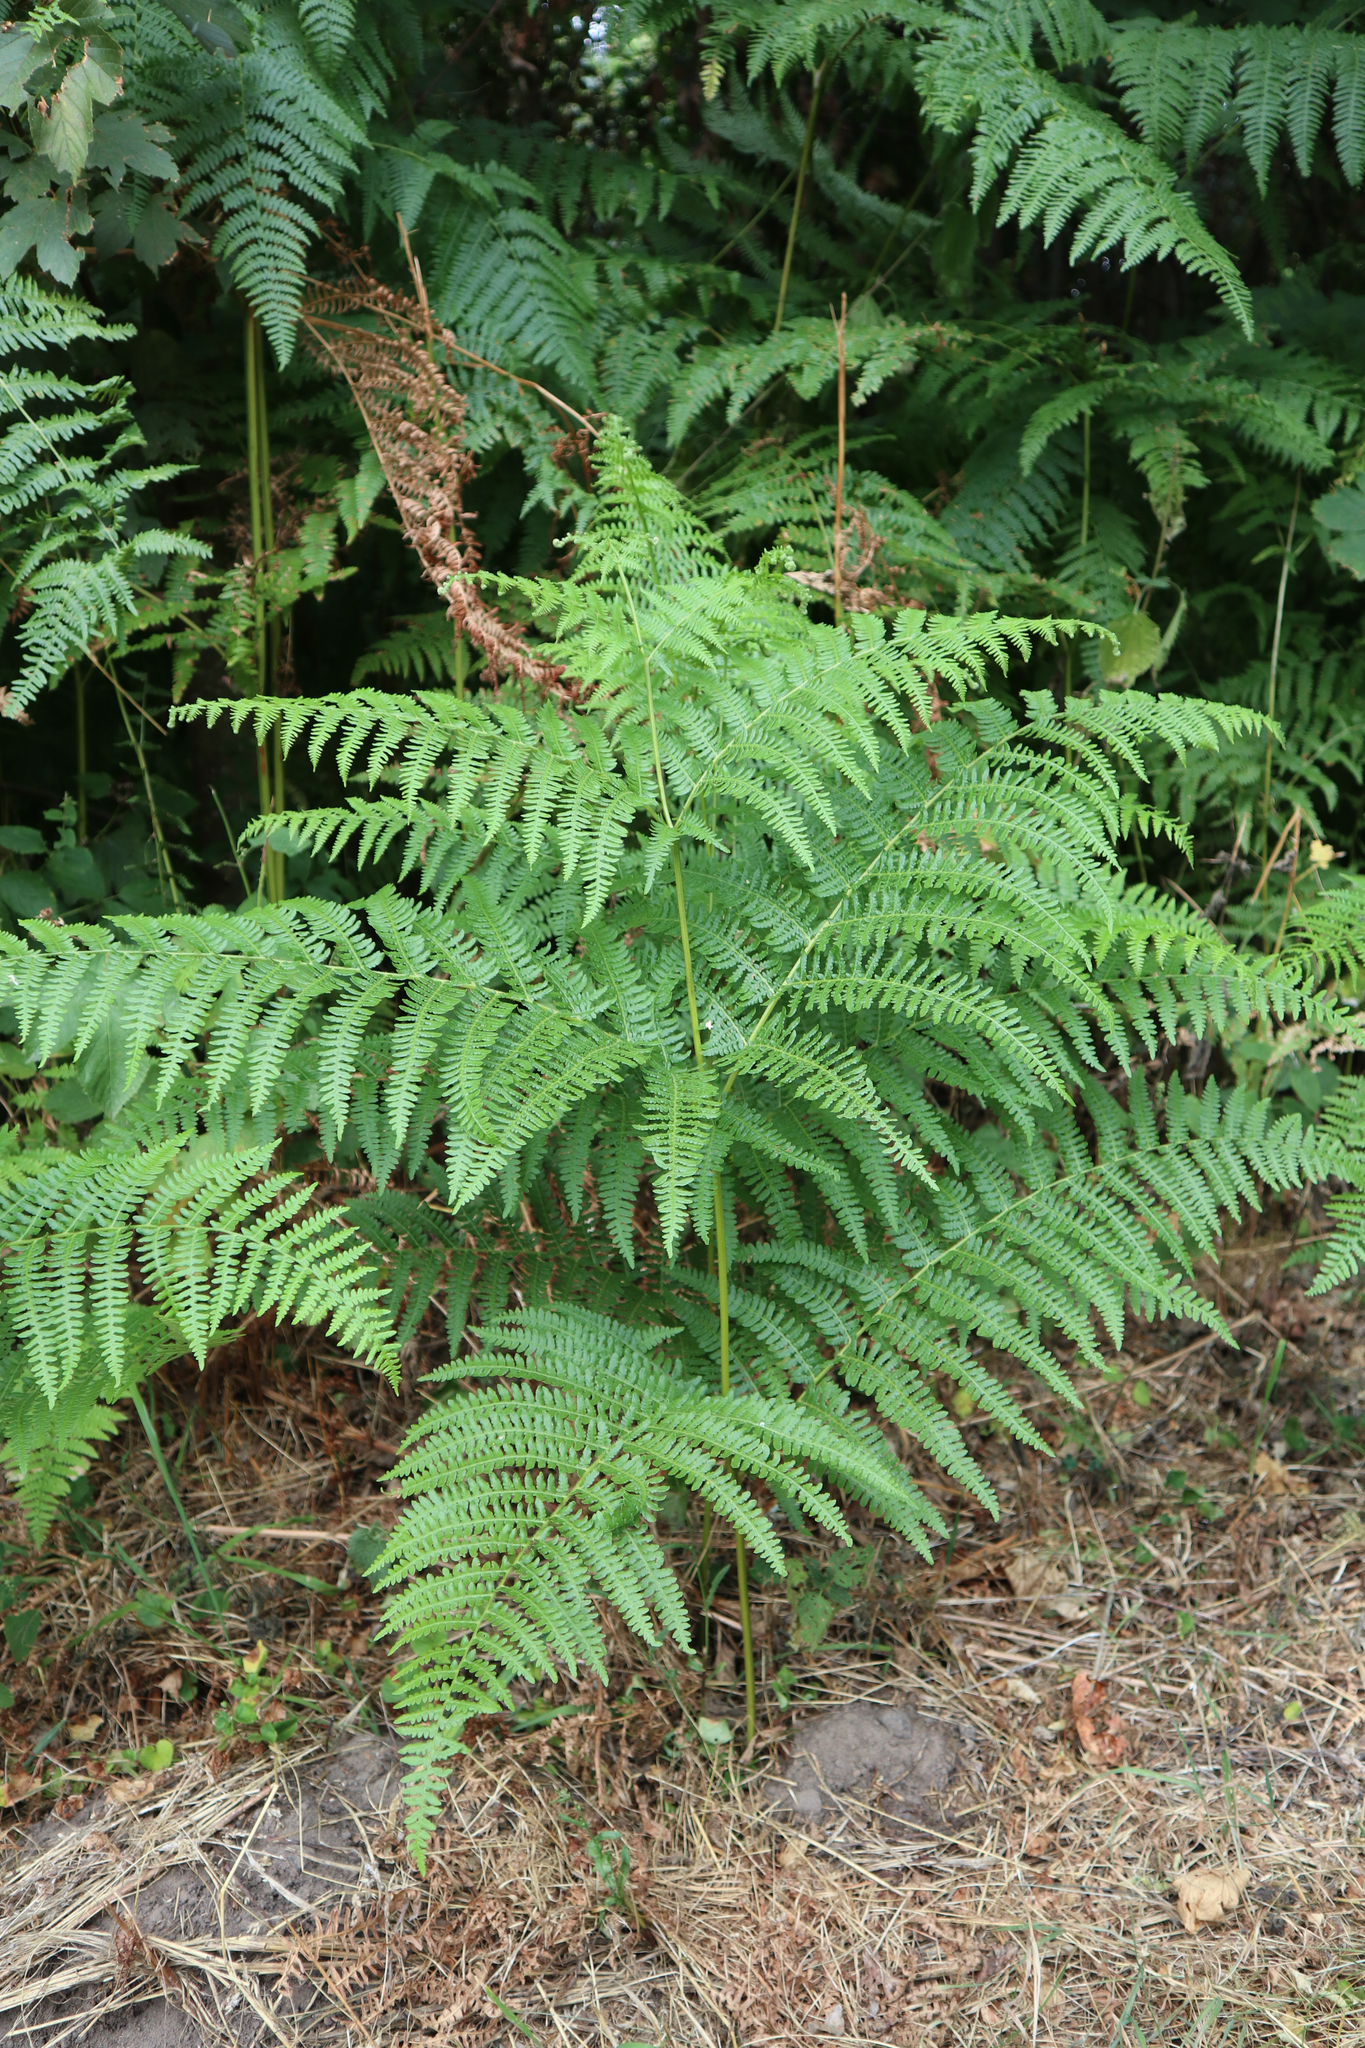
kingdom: Plantae
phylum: Tracheophyta
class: Polypodiopsida
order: Polypodiales
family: Dennstaedtiaceae
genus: Pteridium
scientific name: Pteridium aquilinum
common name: Bracken
